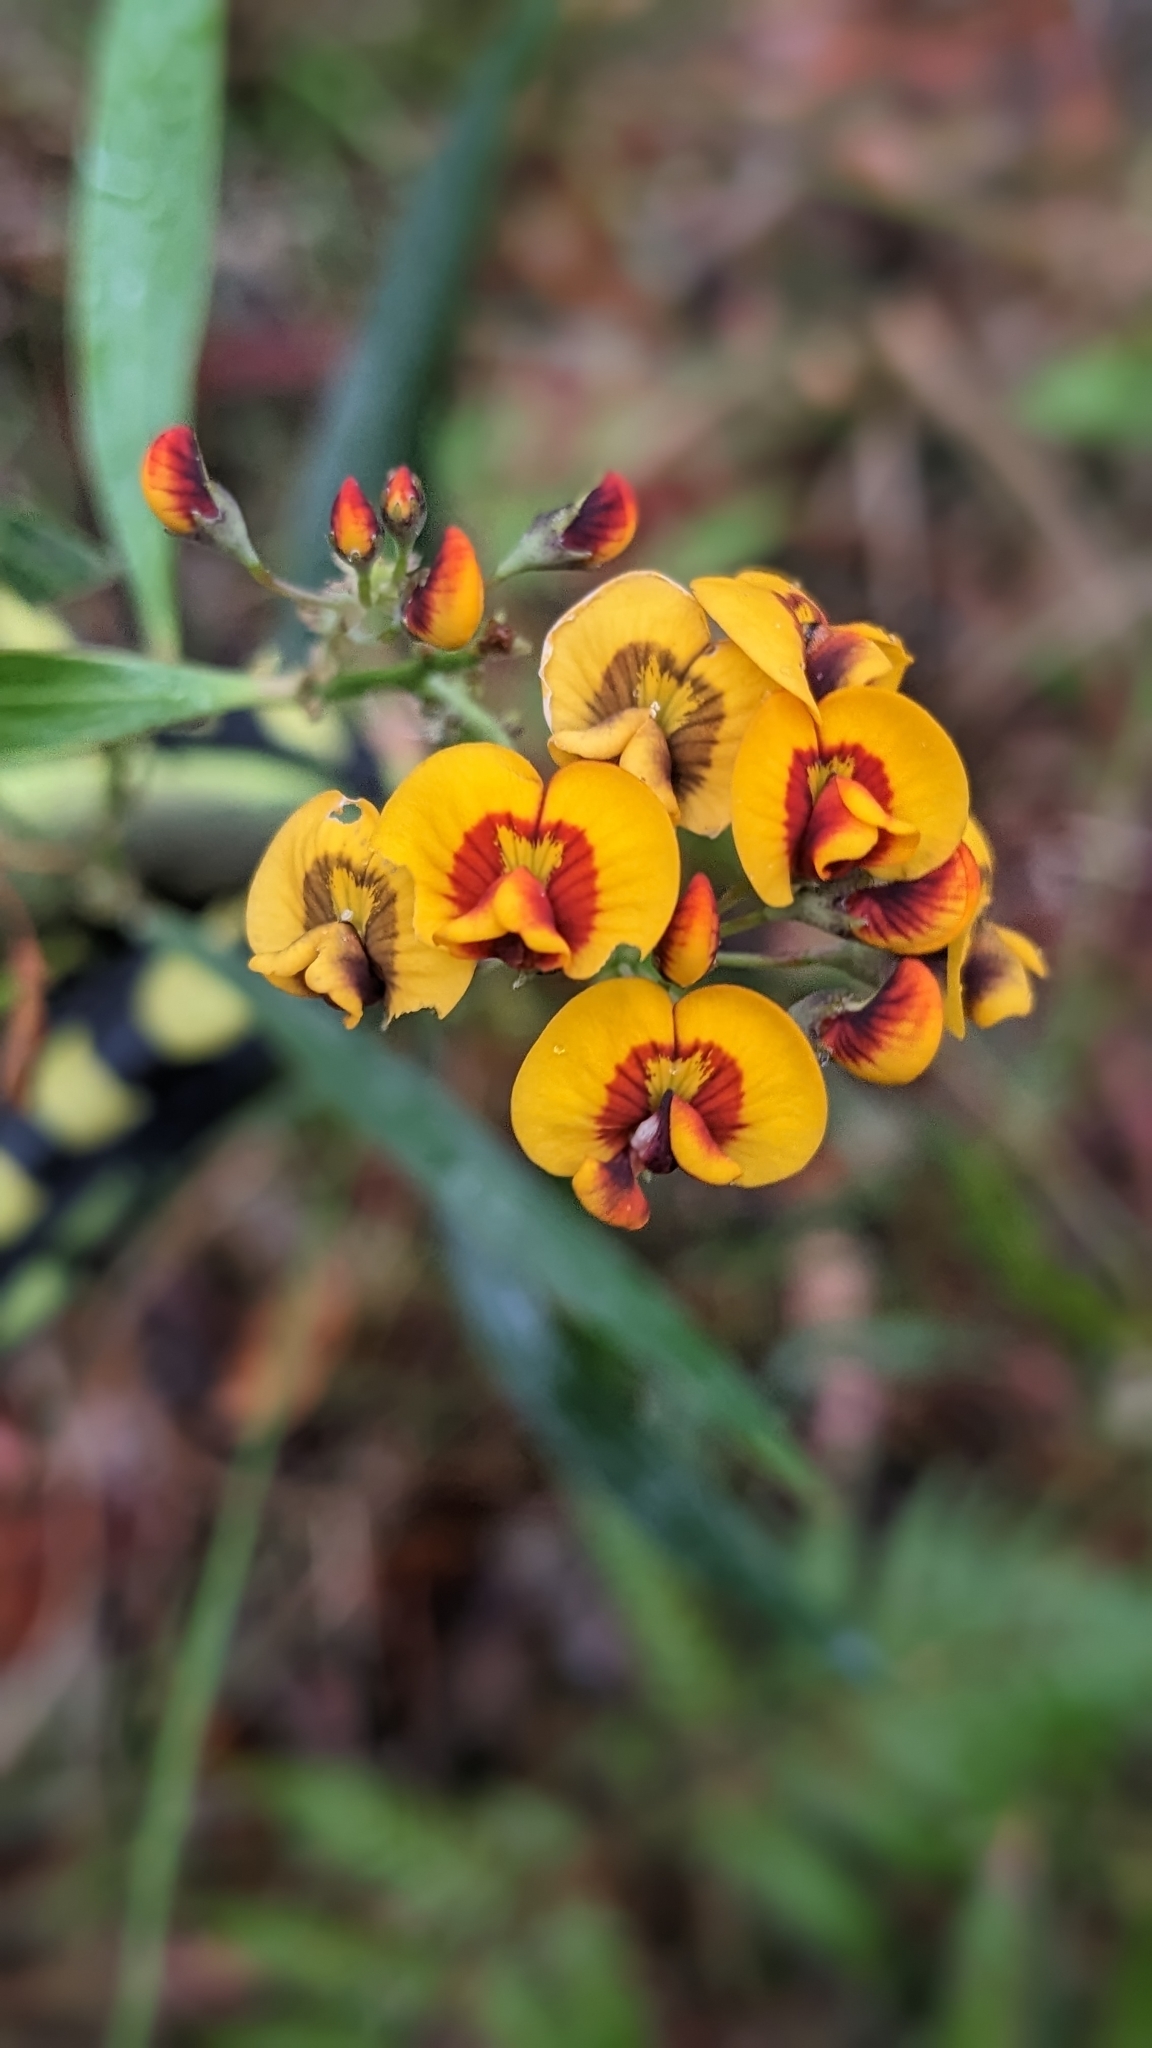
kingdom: Plantae
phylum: Tracheophyta
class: Magnoliopsida
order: Fabales
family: Fabaceae
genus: Daviesia
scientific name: Daviesia corymbosa
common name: Narrow-leaf bitter-pea
